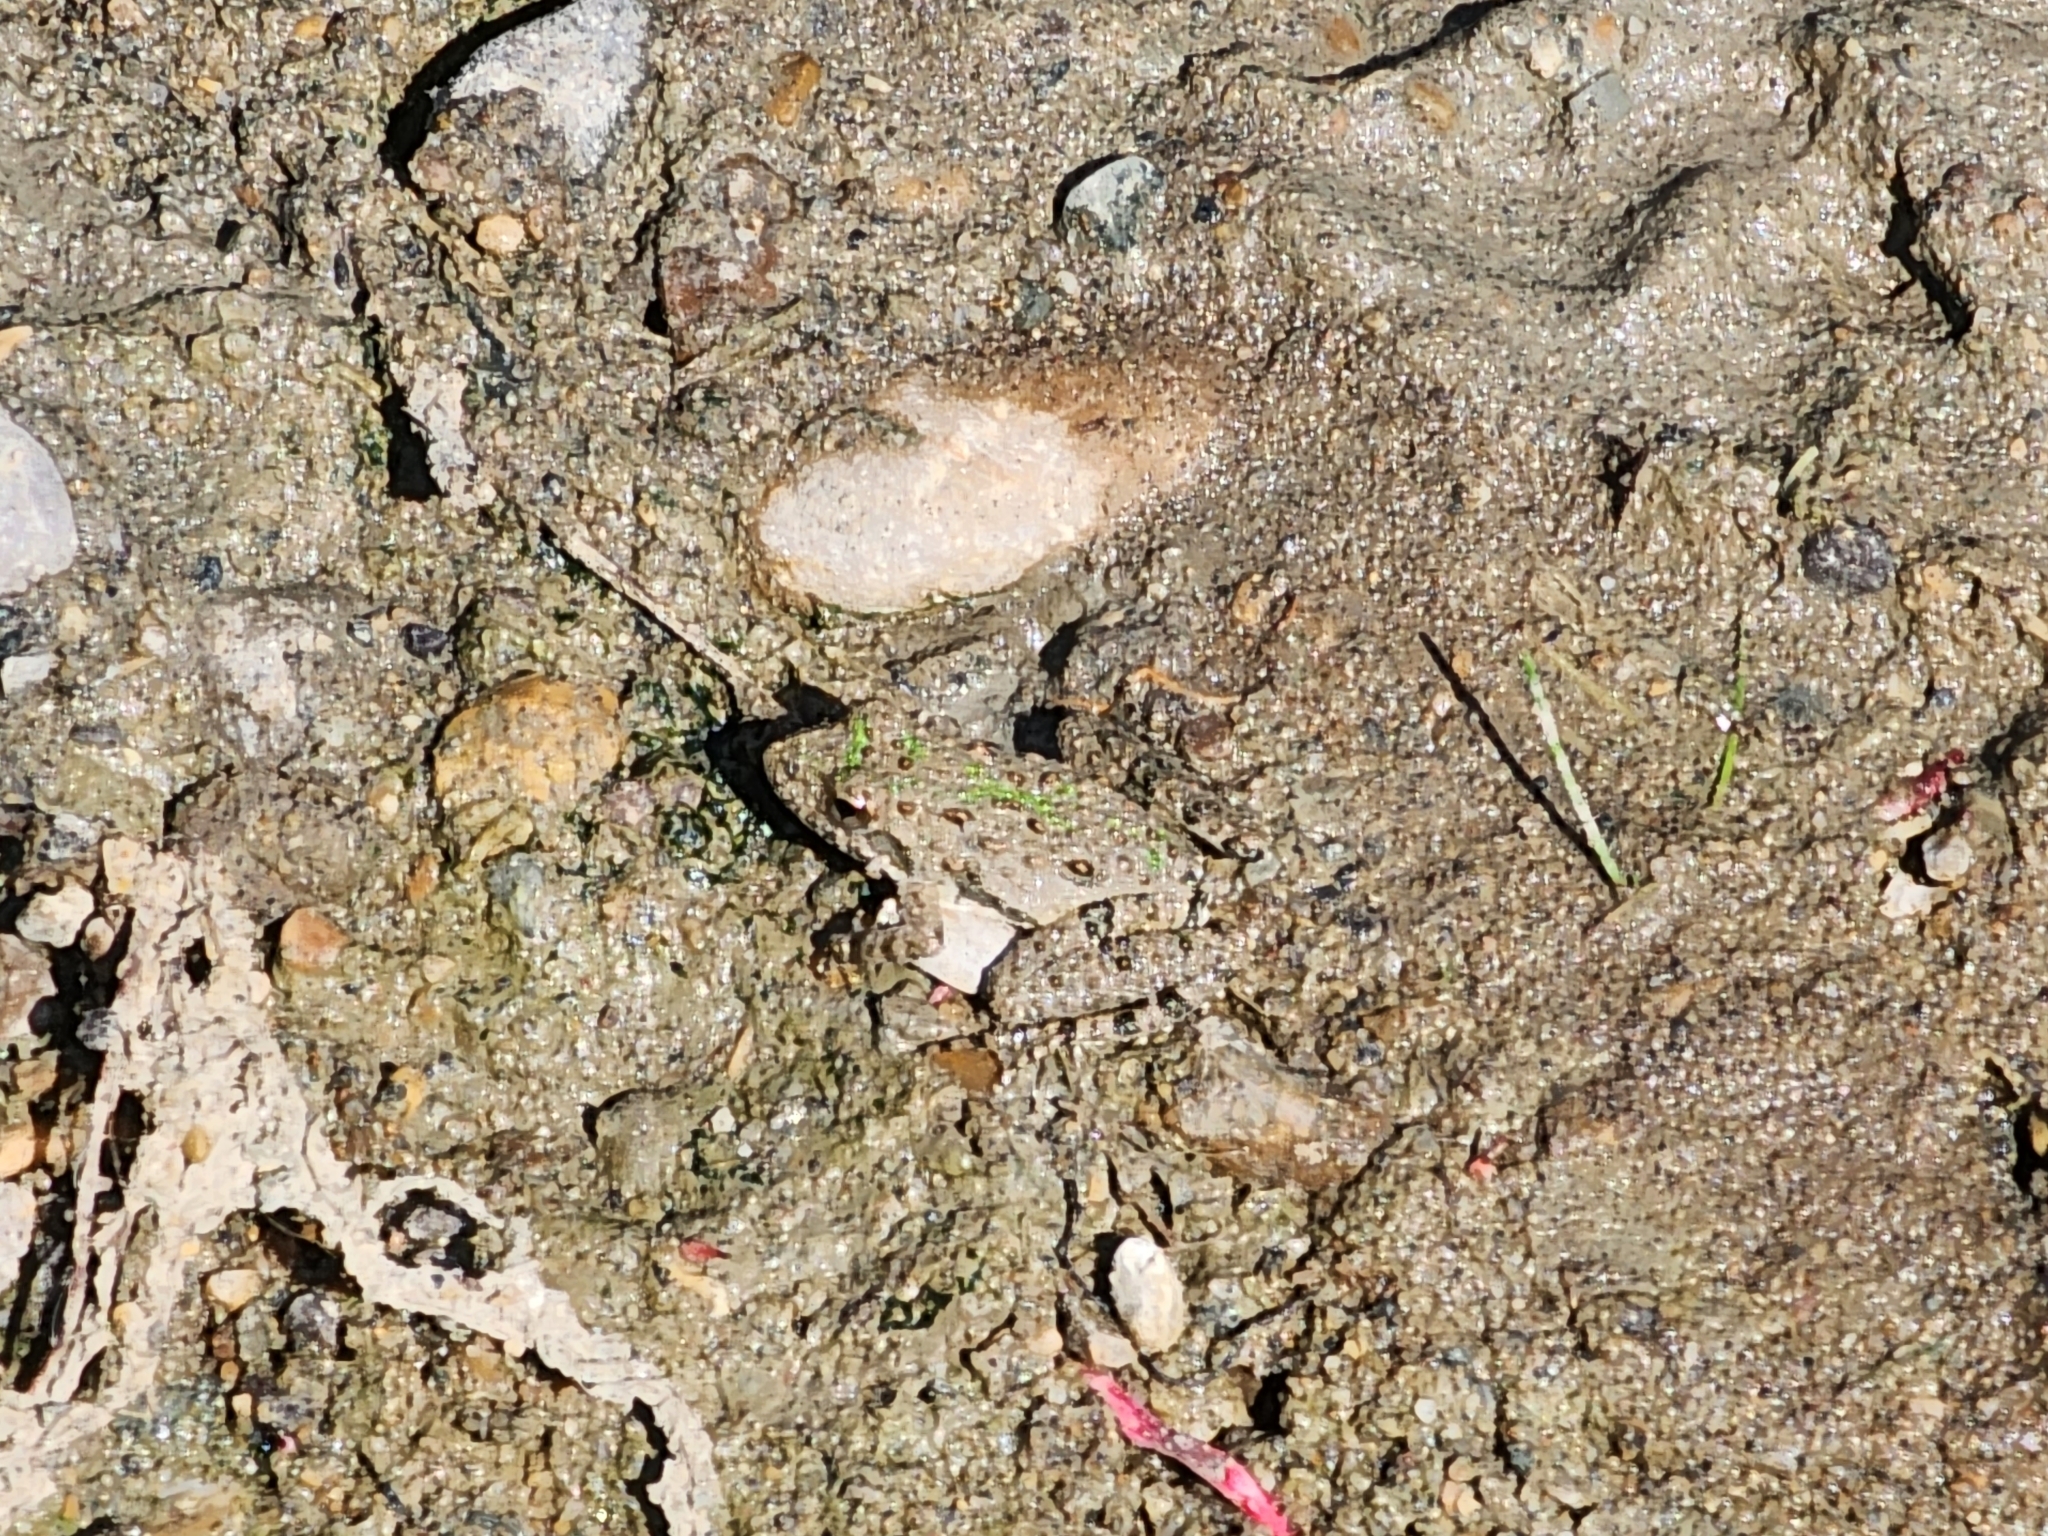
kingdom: Animalia
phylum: Chordata
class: Amphibia
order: Anura
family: Hylidae
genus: Acris
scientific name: Acris blanchardi
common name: Blanchard's cricket frog
